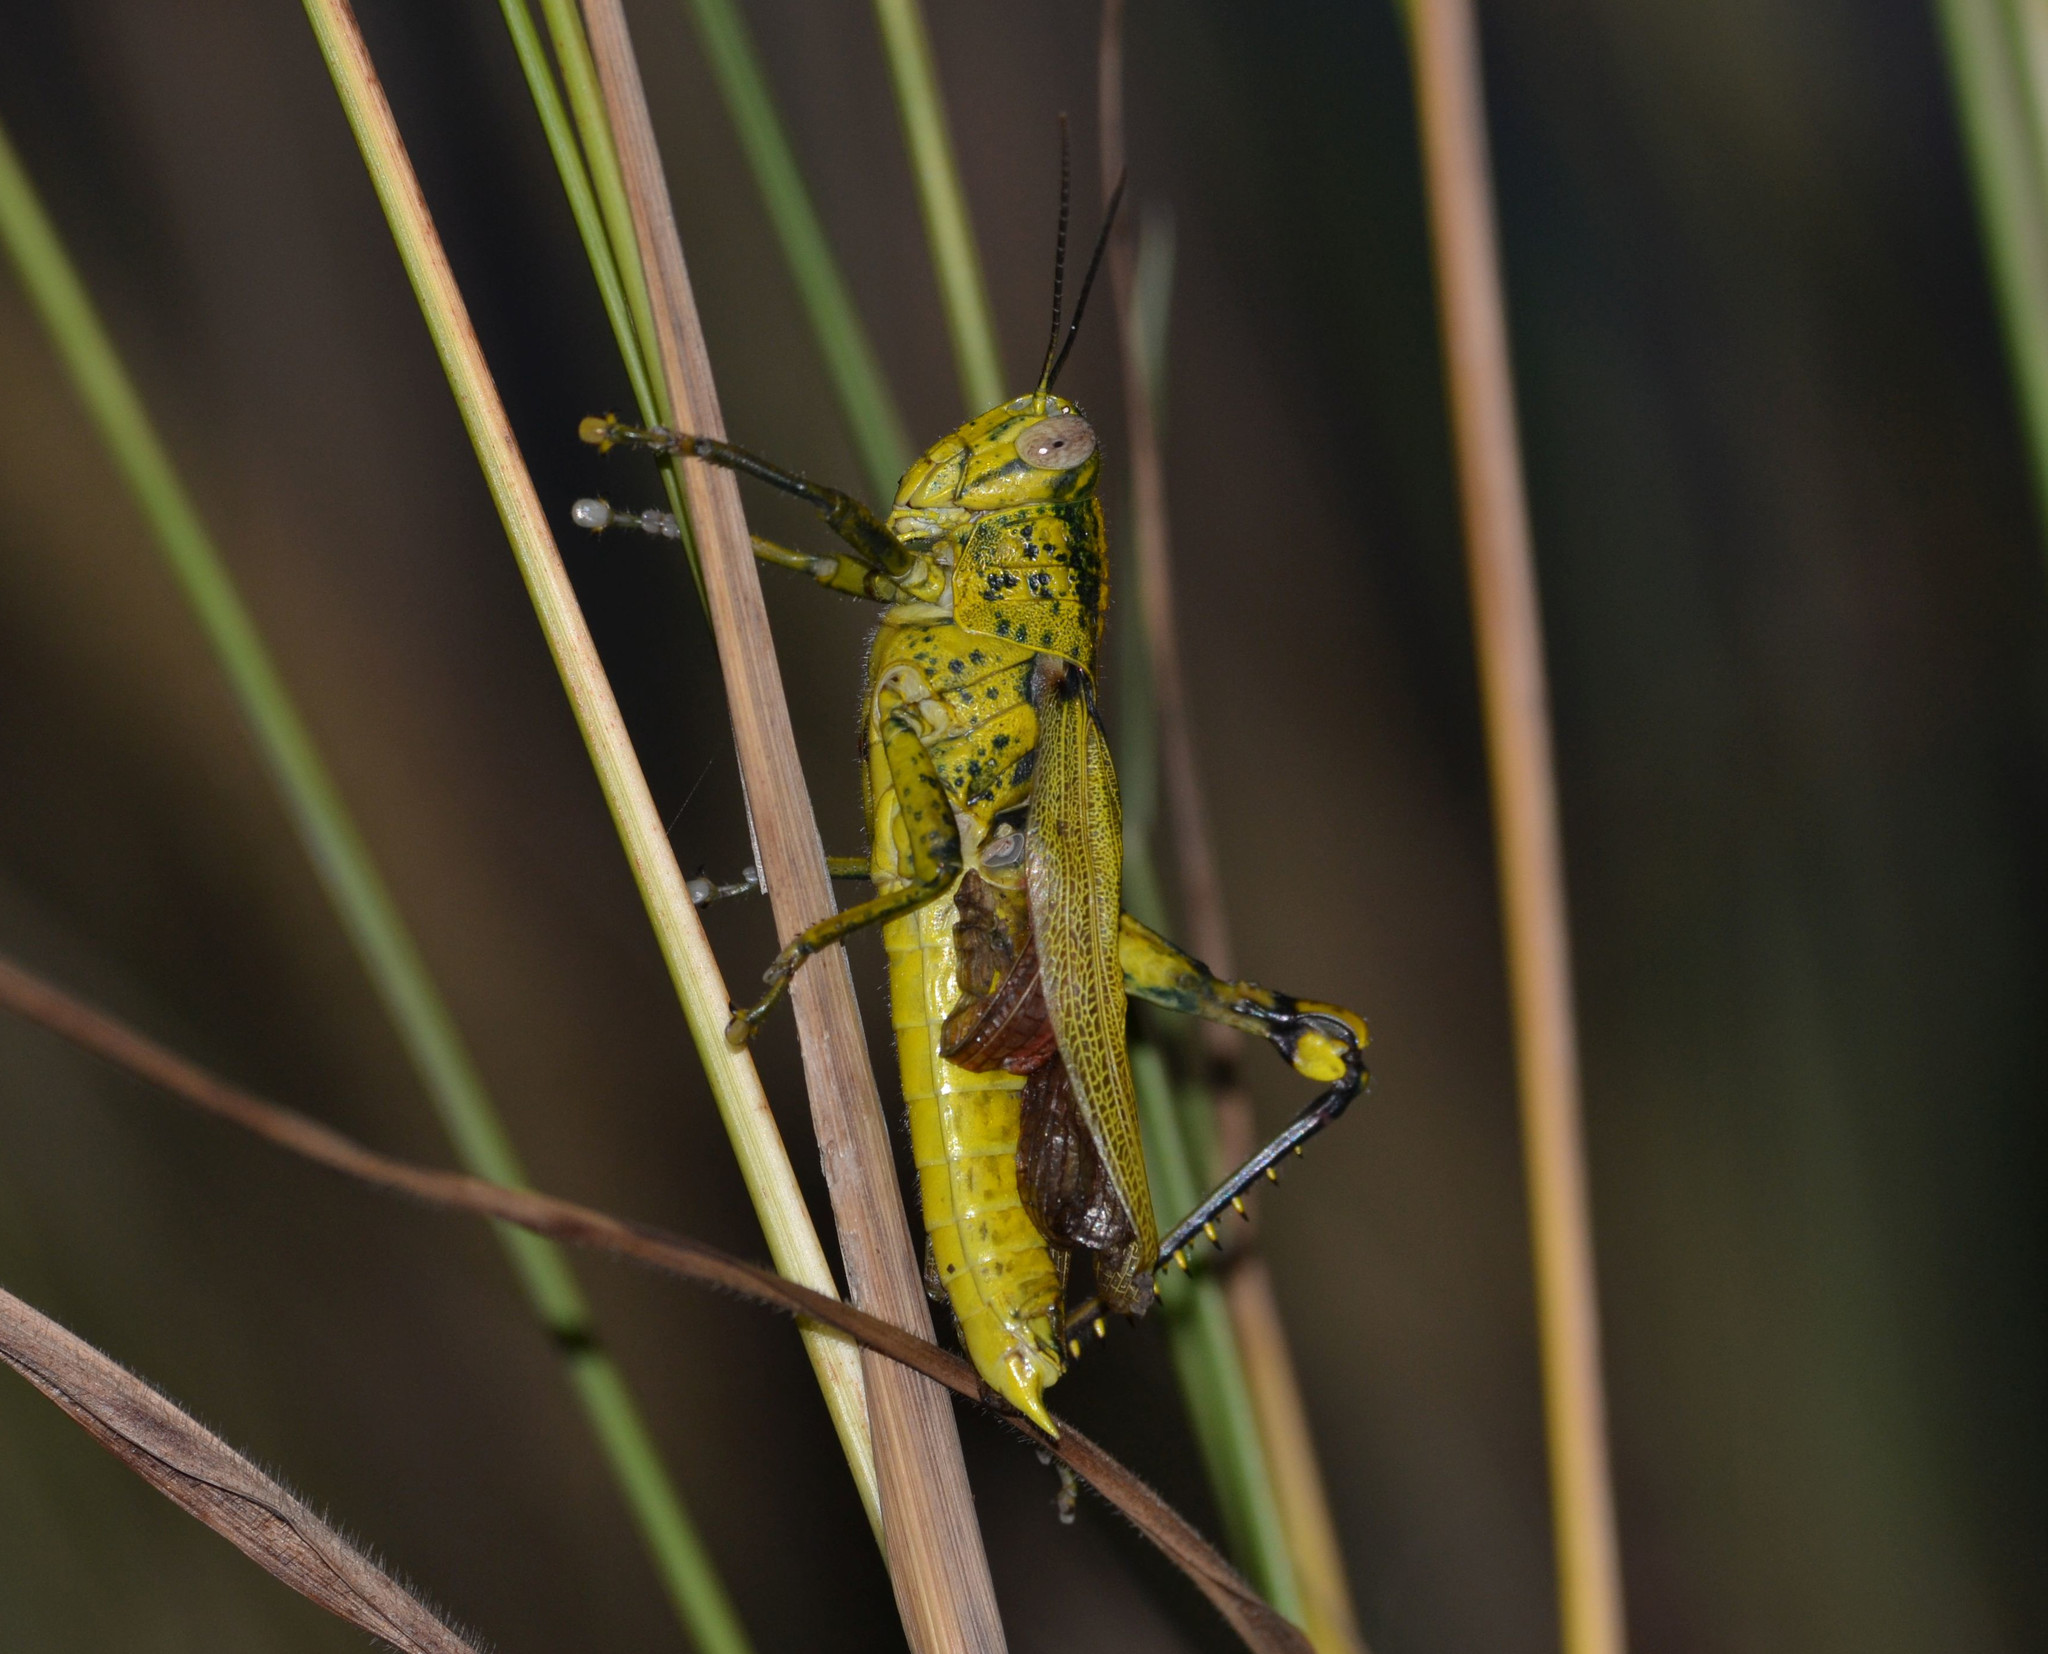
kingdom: Animalia
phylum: Arthropoda
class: Insecta
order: Orthoptera
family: Acrididae
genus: Valanga
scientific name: Valanga nigricornis
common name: Javanese bird grasshopper
